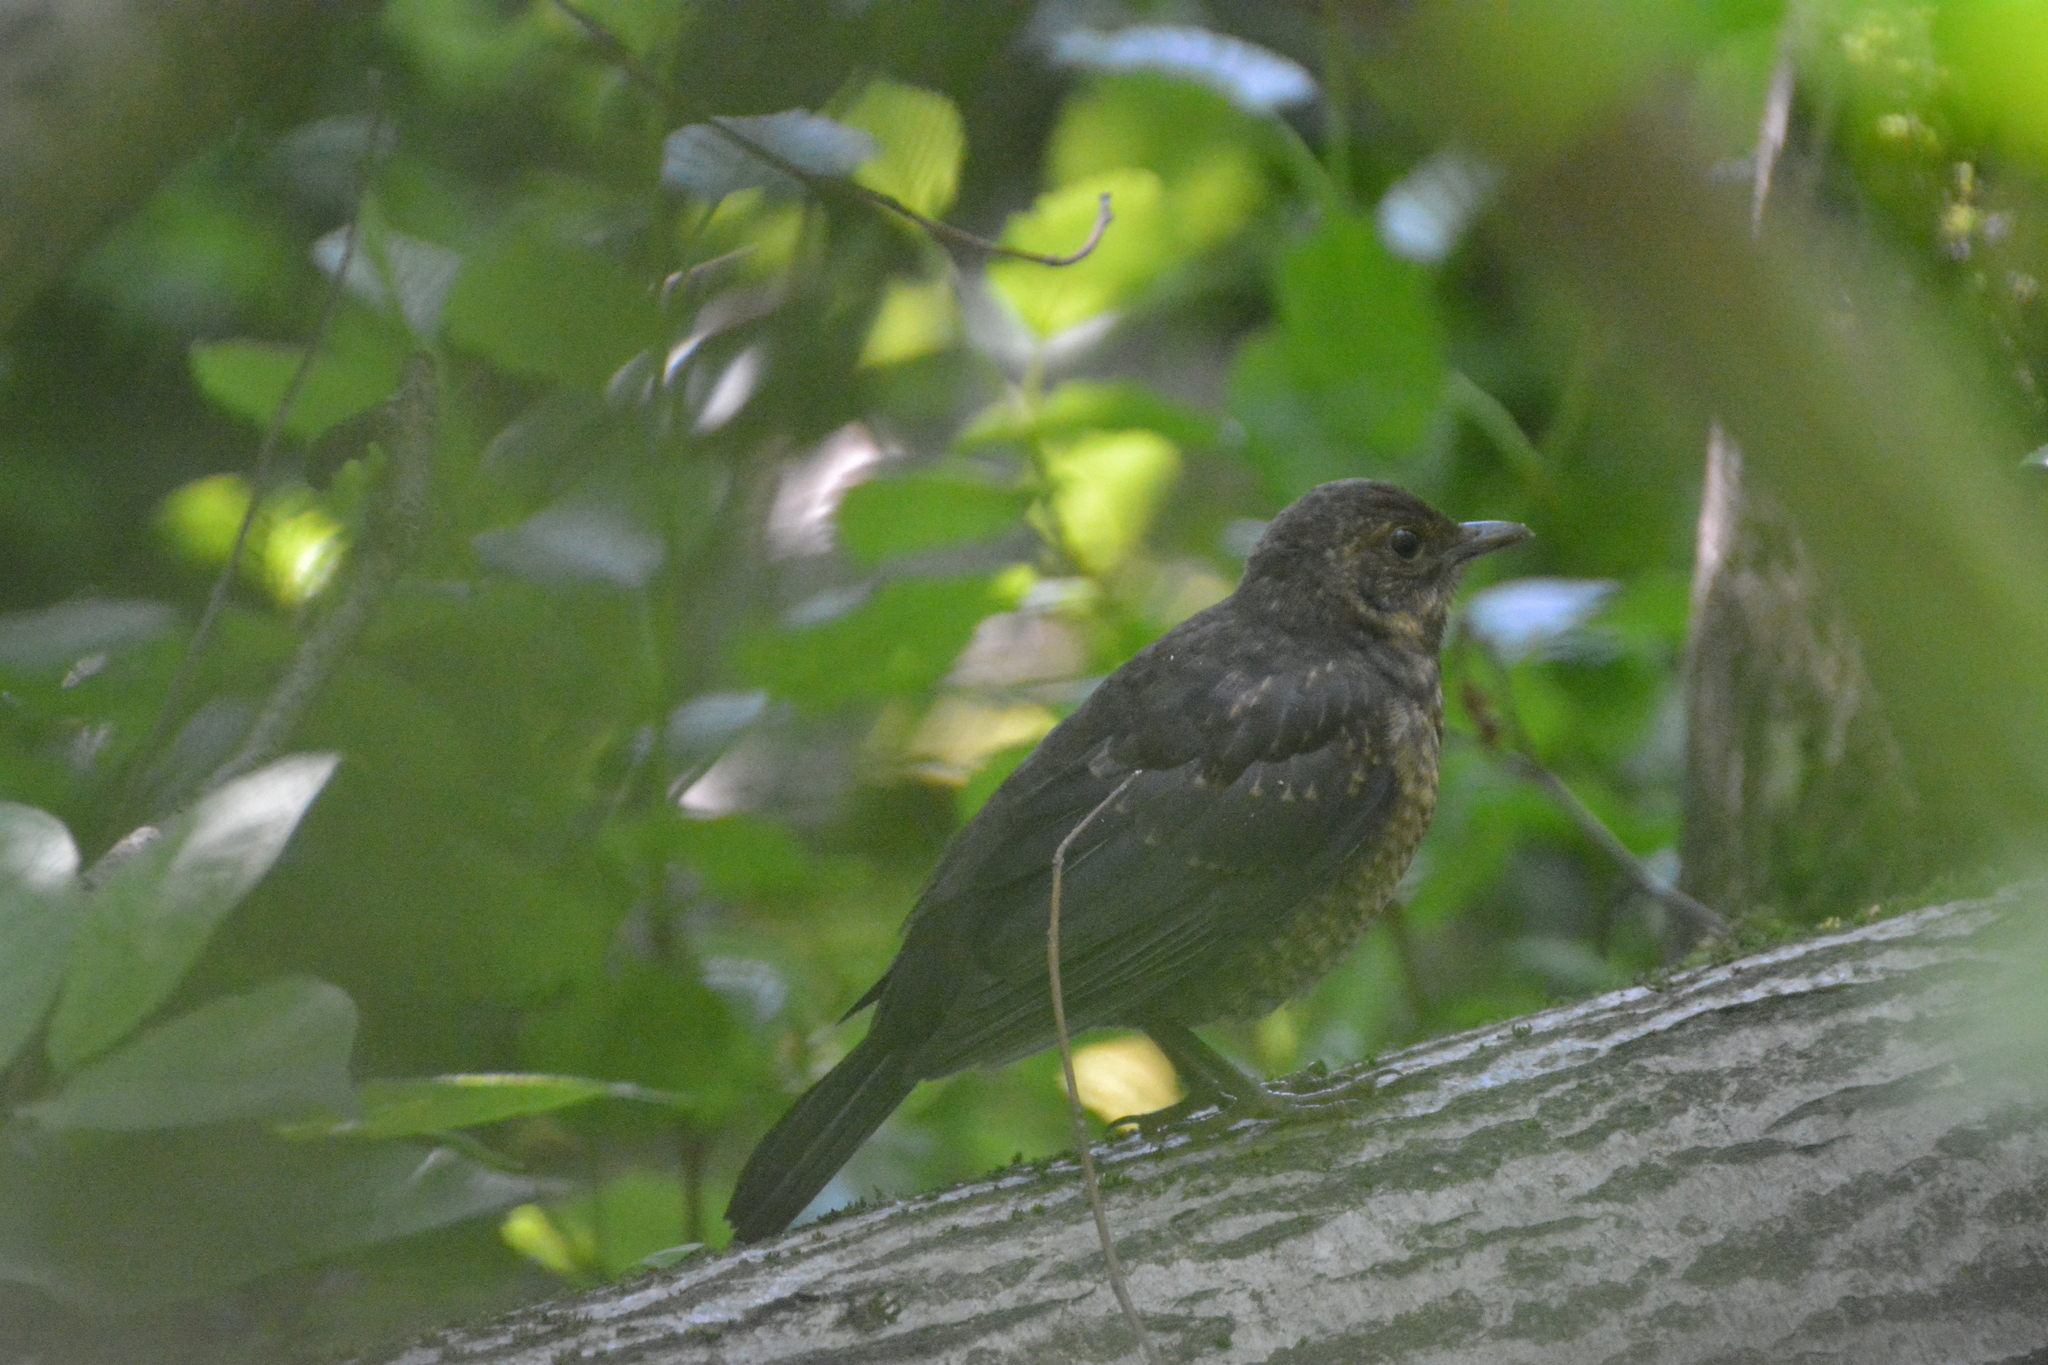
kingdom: Animalia
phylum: Chordata
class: Aves
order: Passeriformes
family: Turdidae
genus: Turdus
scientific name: Turdus merula
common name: Common blackbird
